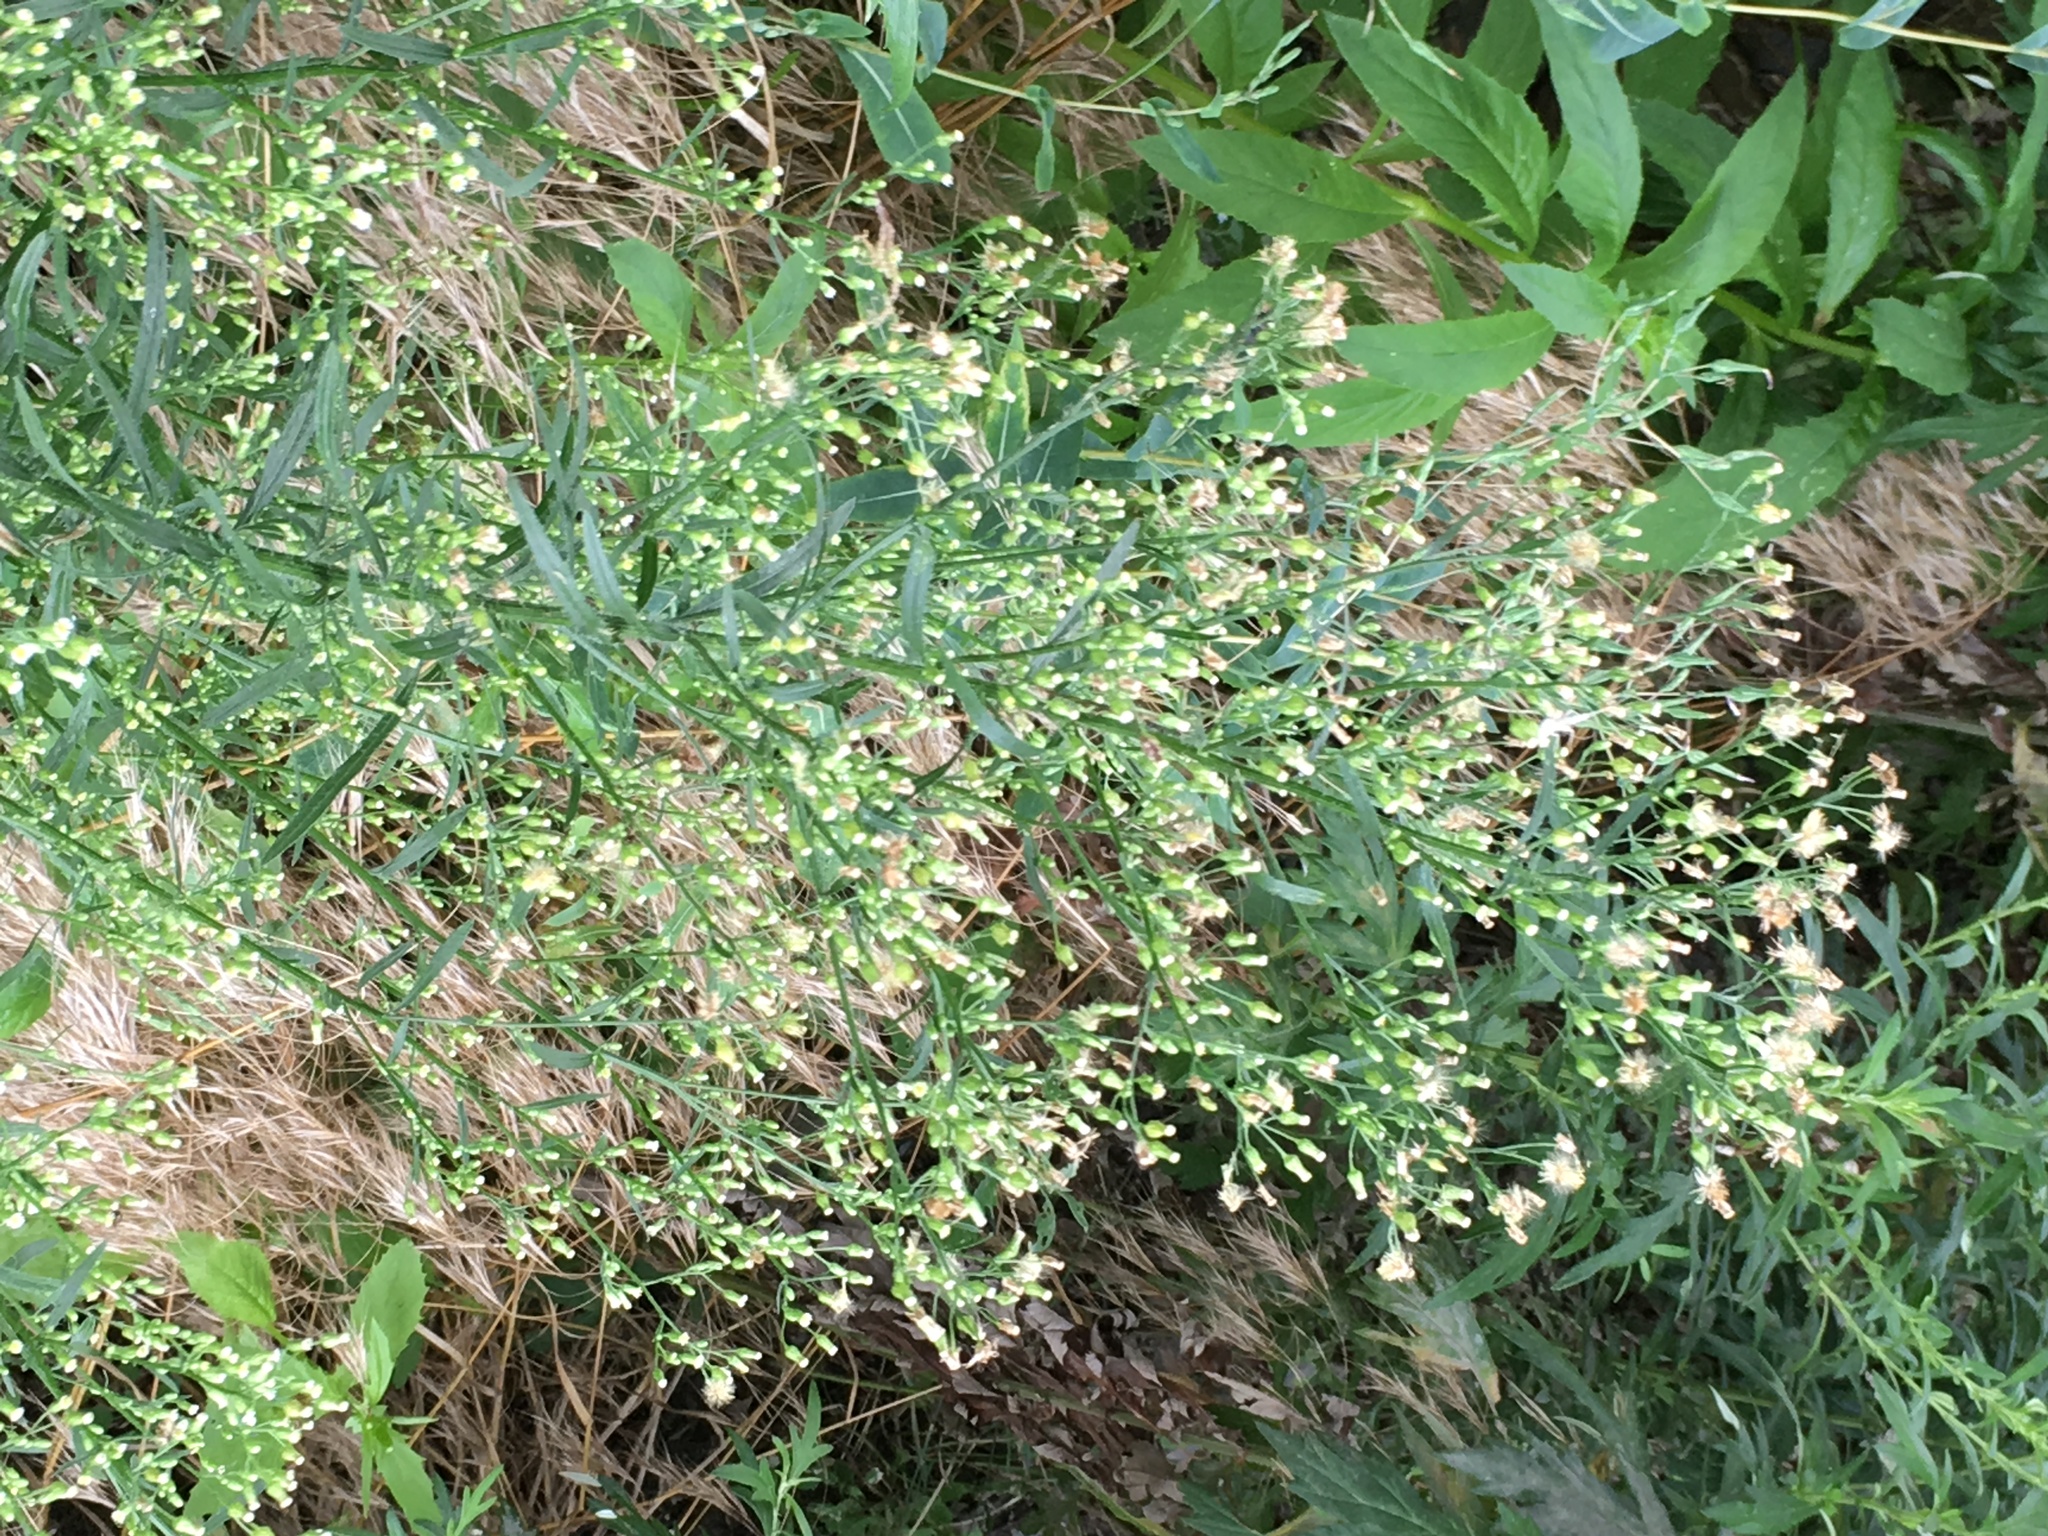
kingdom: Plantae
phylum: Tracheophyta
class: Magnoliopsida
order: Asterales
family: Asteraceae
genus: Erigeron
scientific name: Erigeron canadensis
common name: Canadian fleabane
